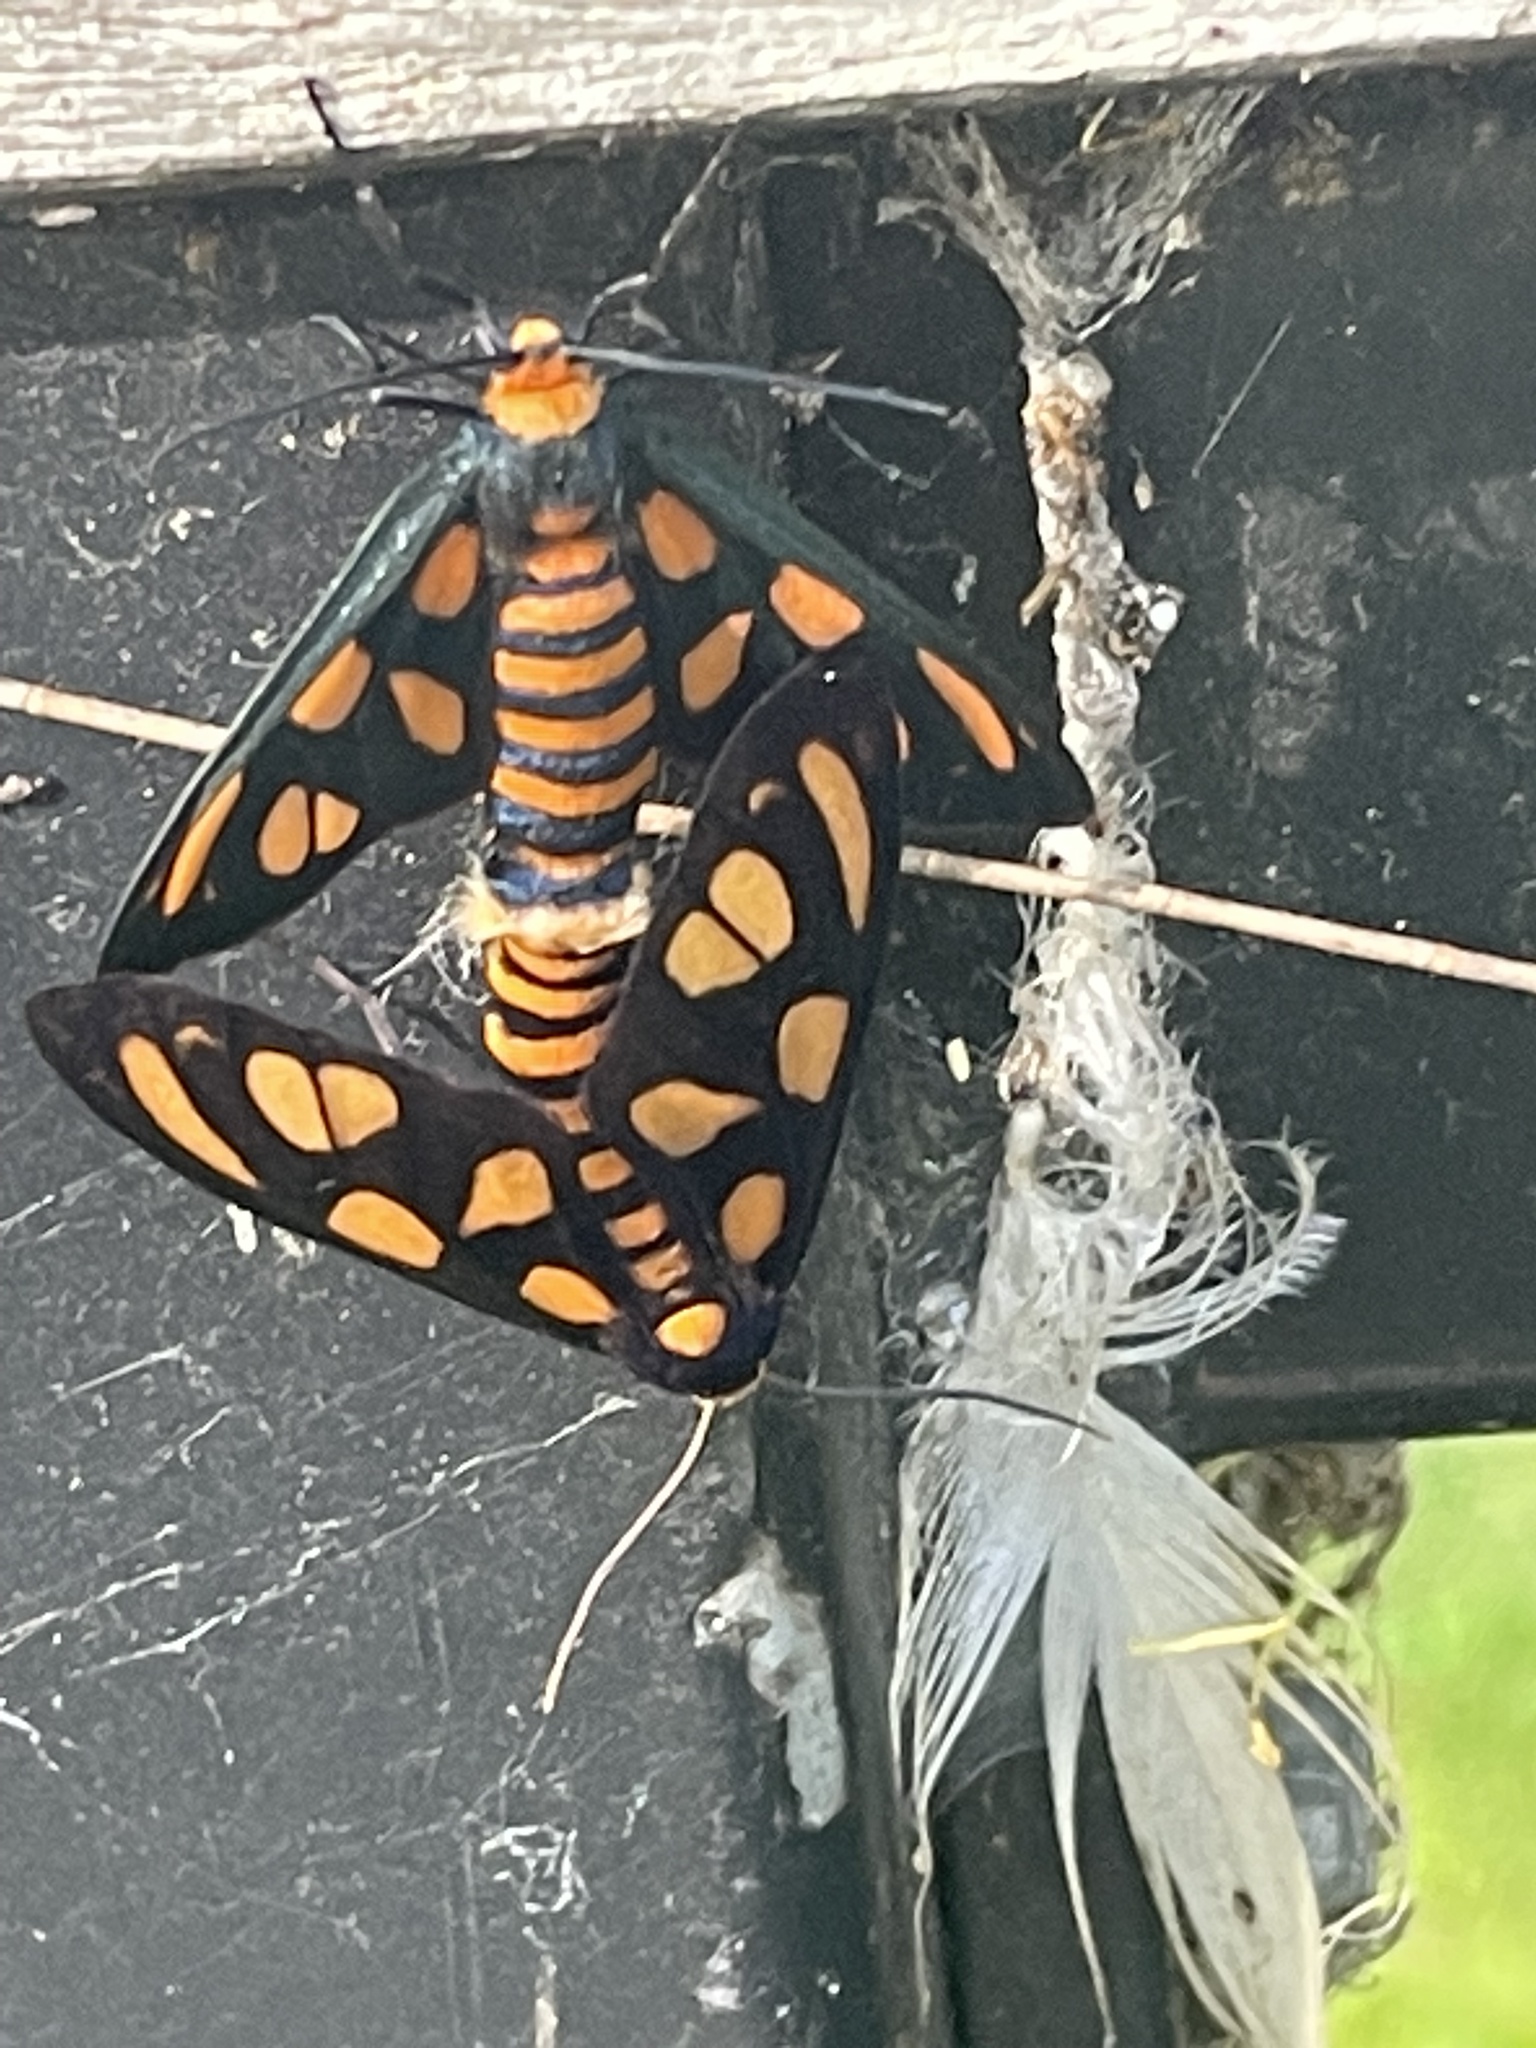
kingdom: Animalia
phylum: Arthropoda
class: Insecta
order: Lepidoptera
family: Erebidae
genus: Amata
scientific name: Amata aperta
